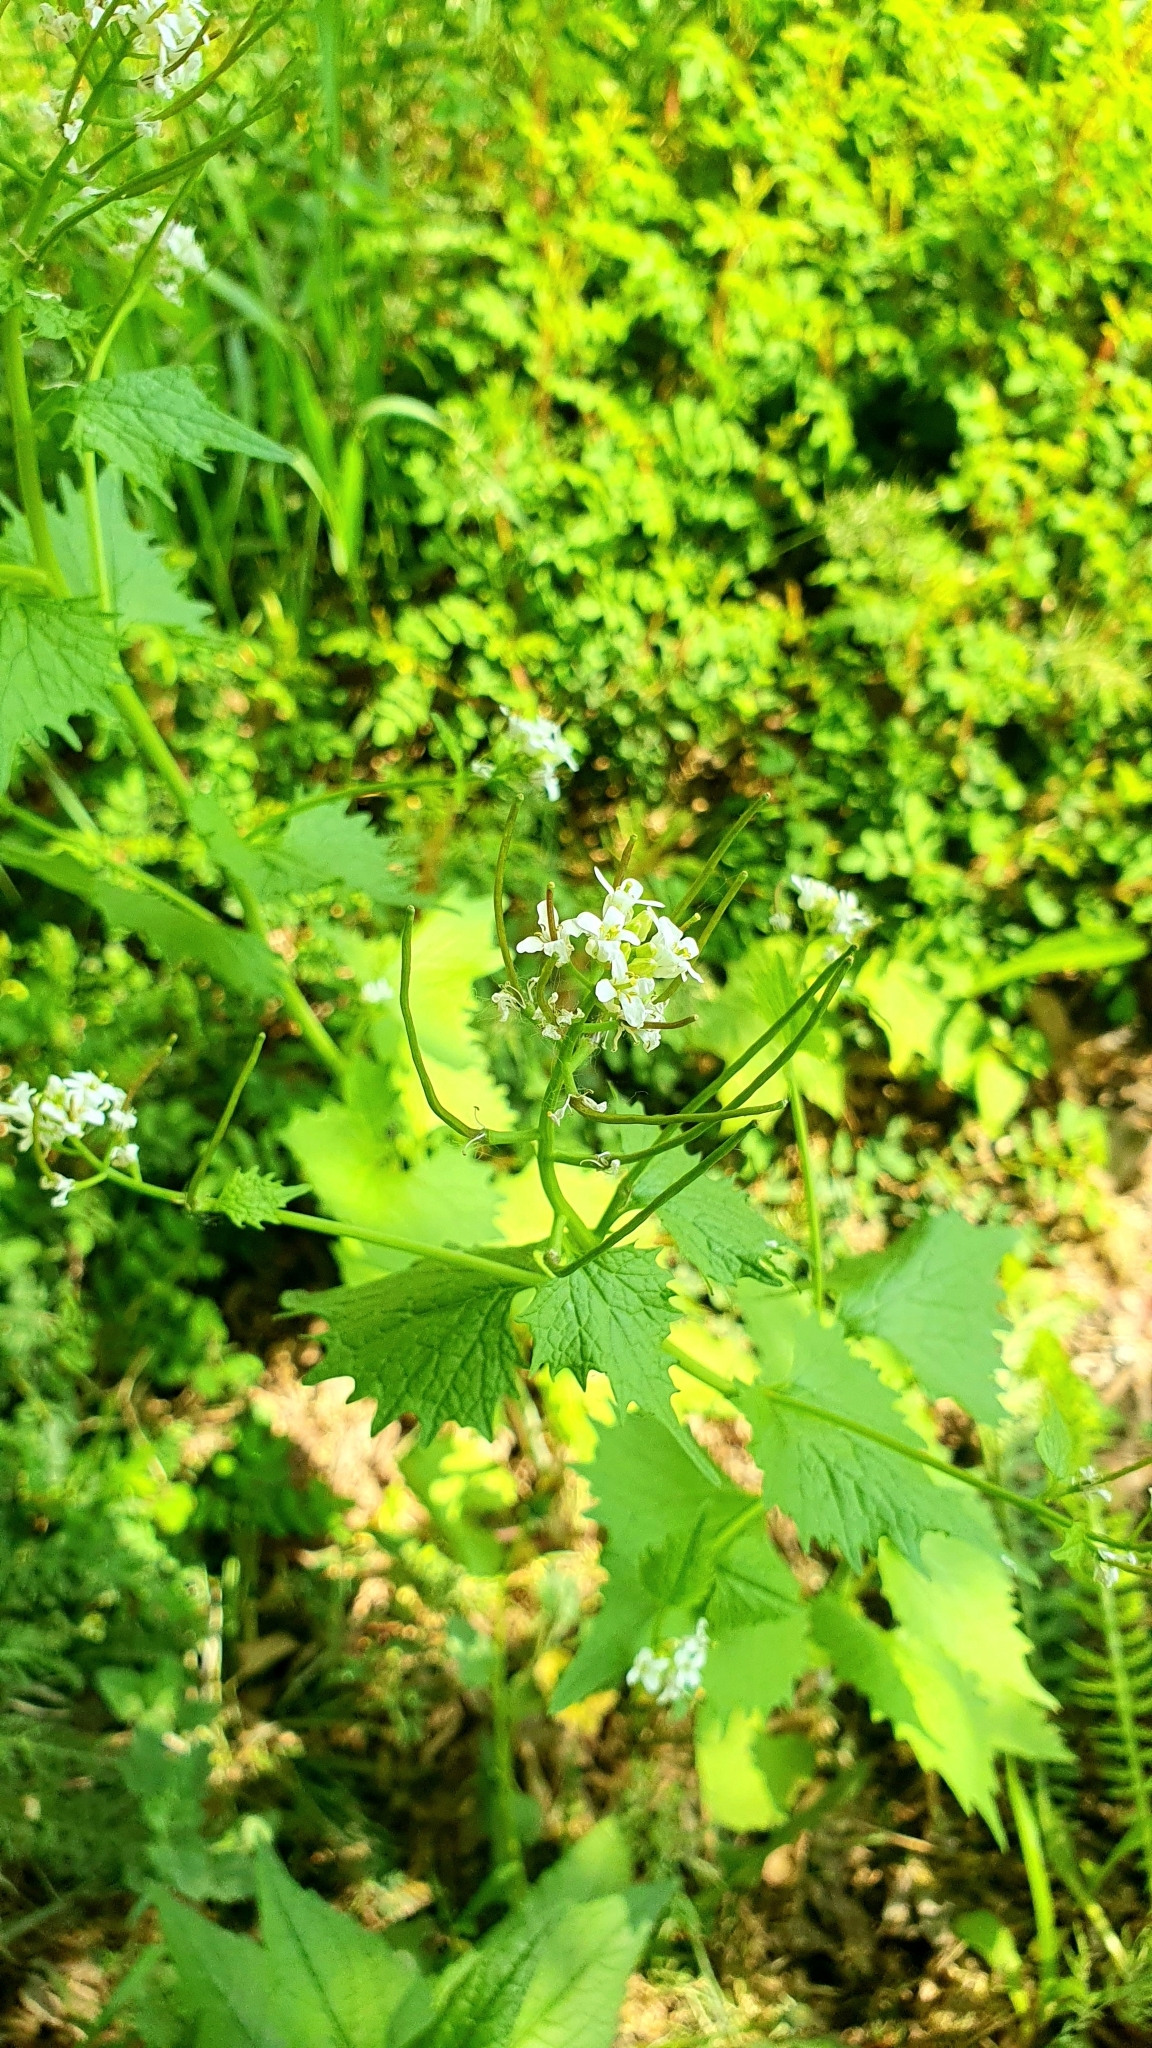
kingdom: Plantae
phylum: Tracheophyta
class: Magnoliopsida
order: Brassicales
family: Brassicaceae
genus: Alliaria
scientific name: Alliaria petiolata
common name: Garlic mustard
